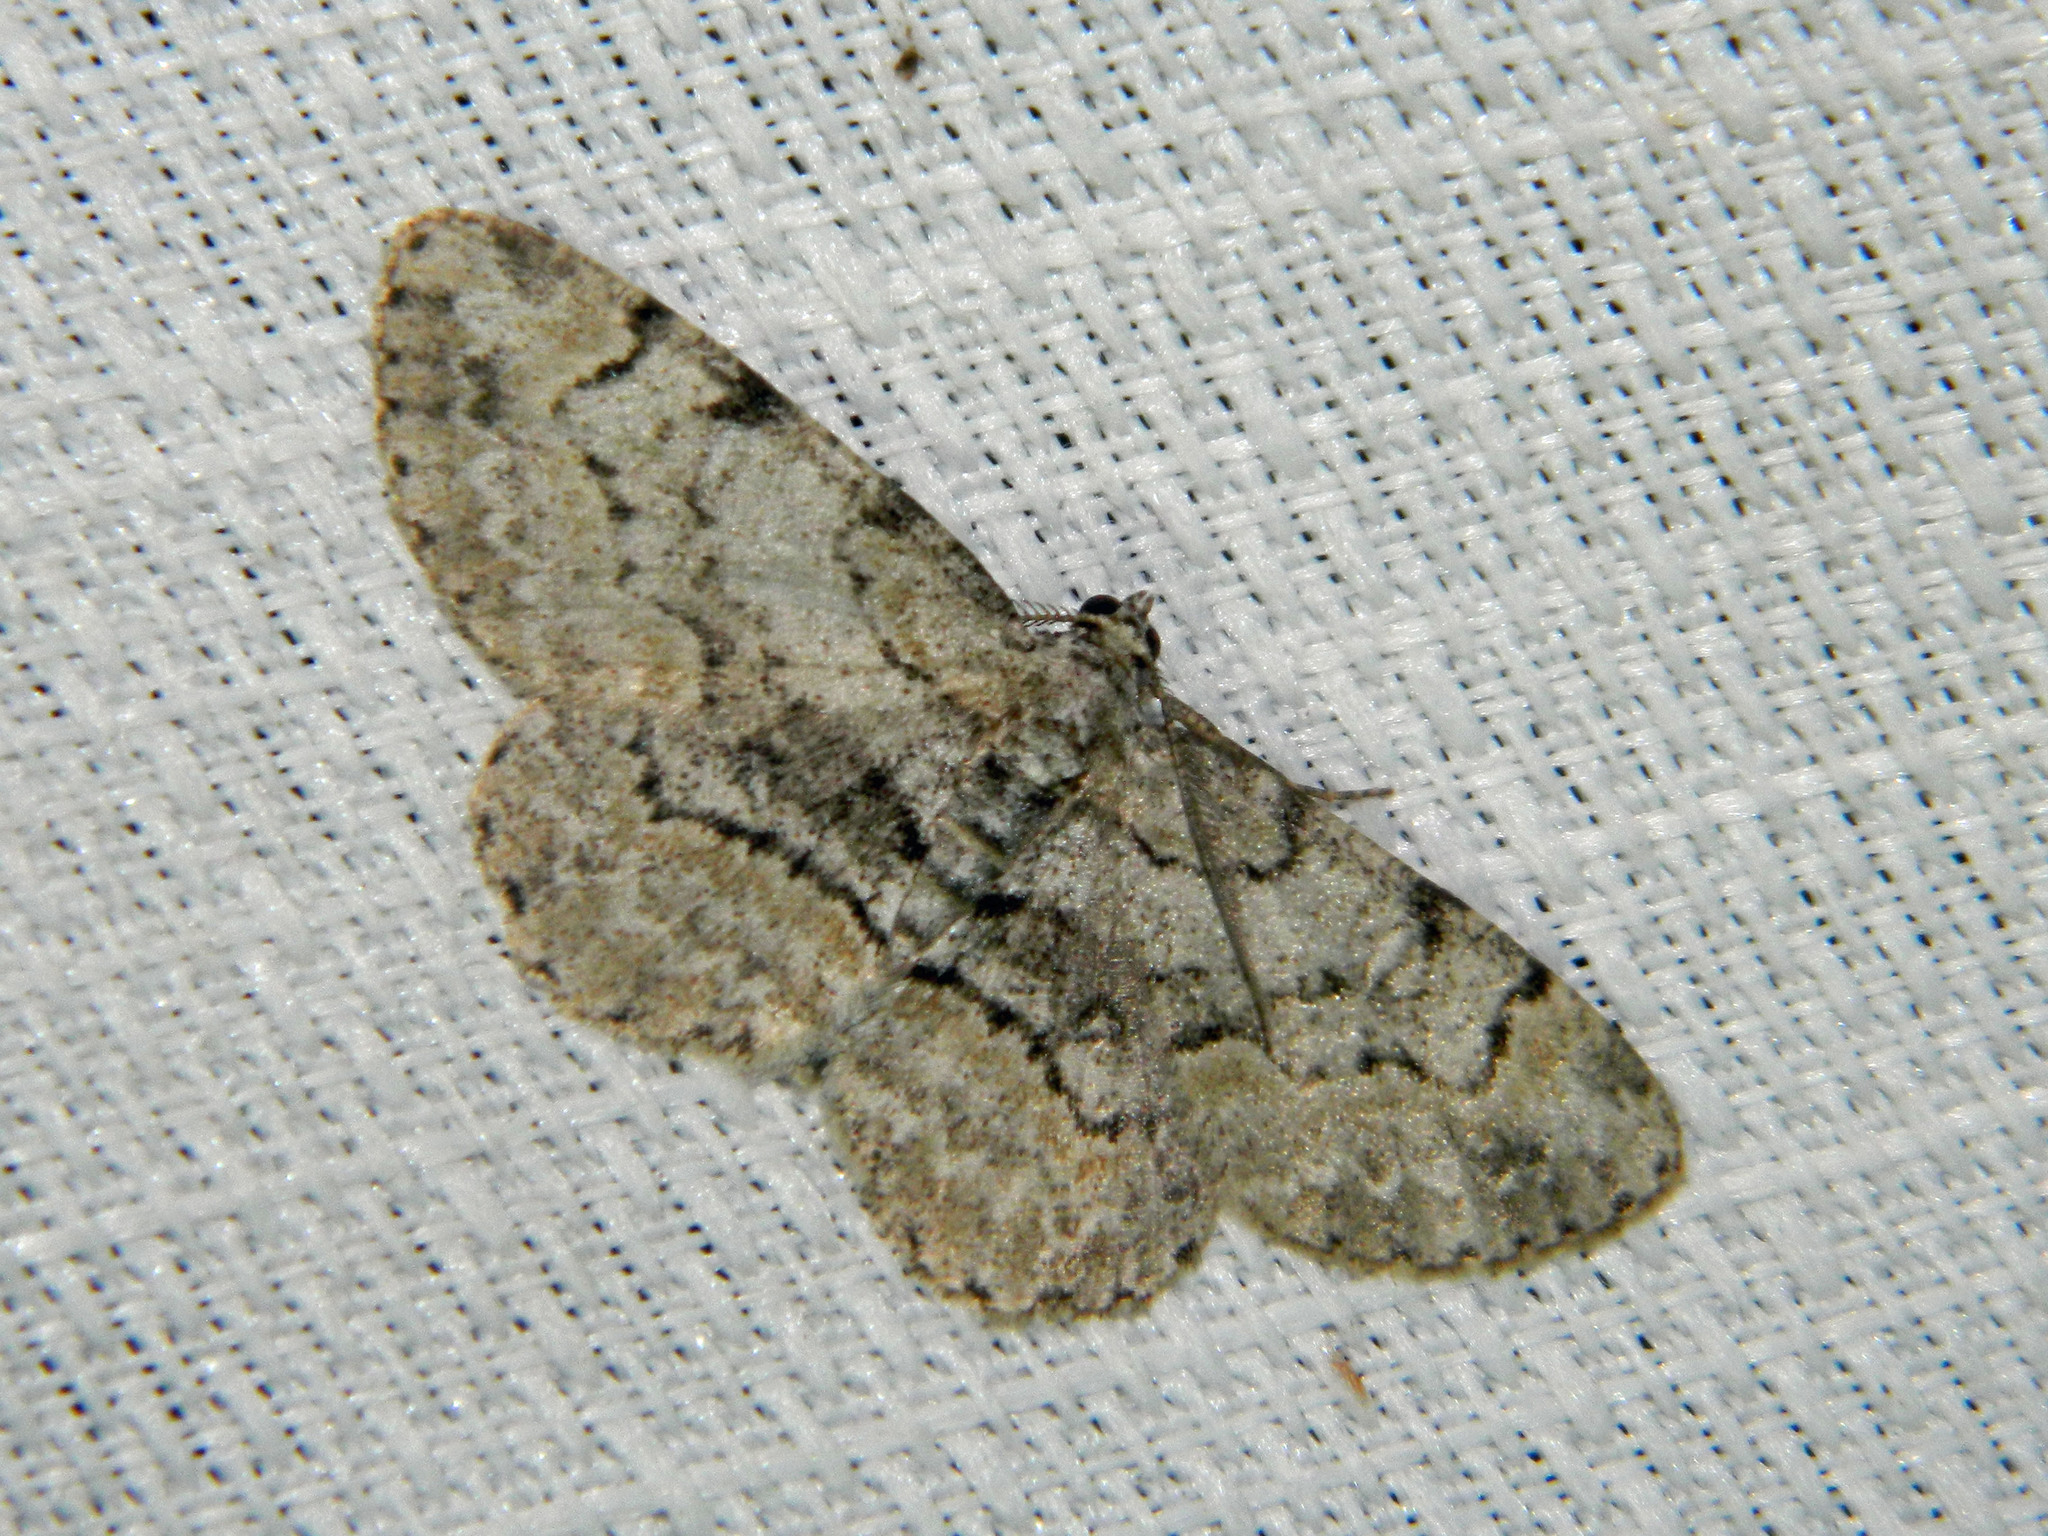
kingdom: Animalia
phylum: Arthropoda
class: Insecta
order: Lepidoptera
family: Geometridae
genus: Iridopsis
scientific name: Iridopsis ephyraria
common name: Pale-winged gray
